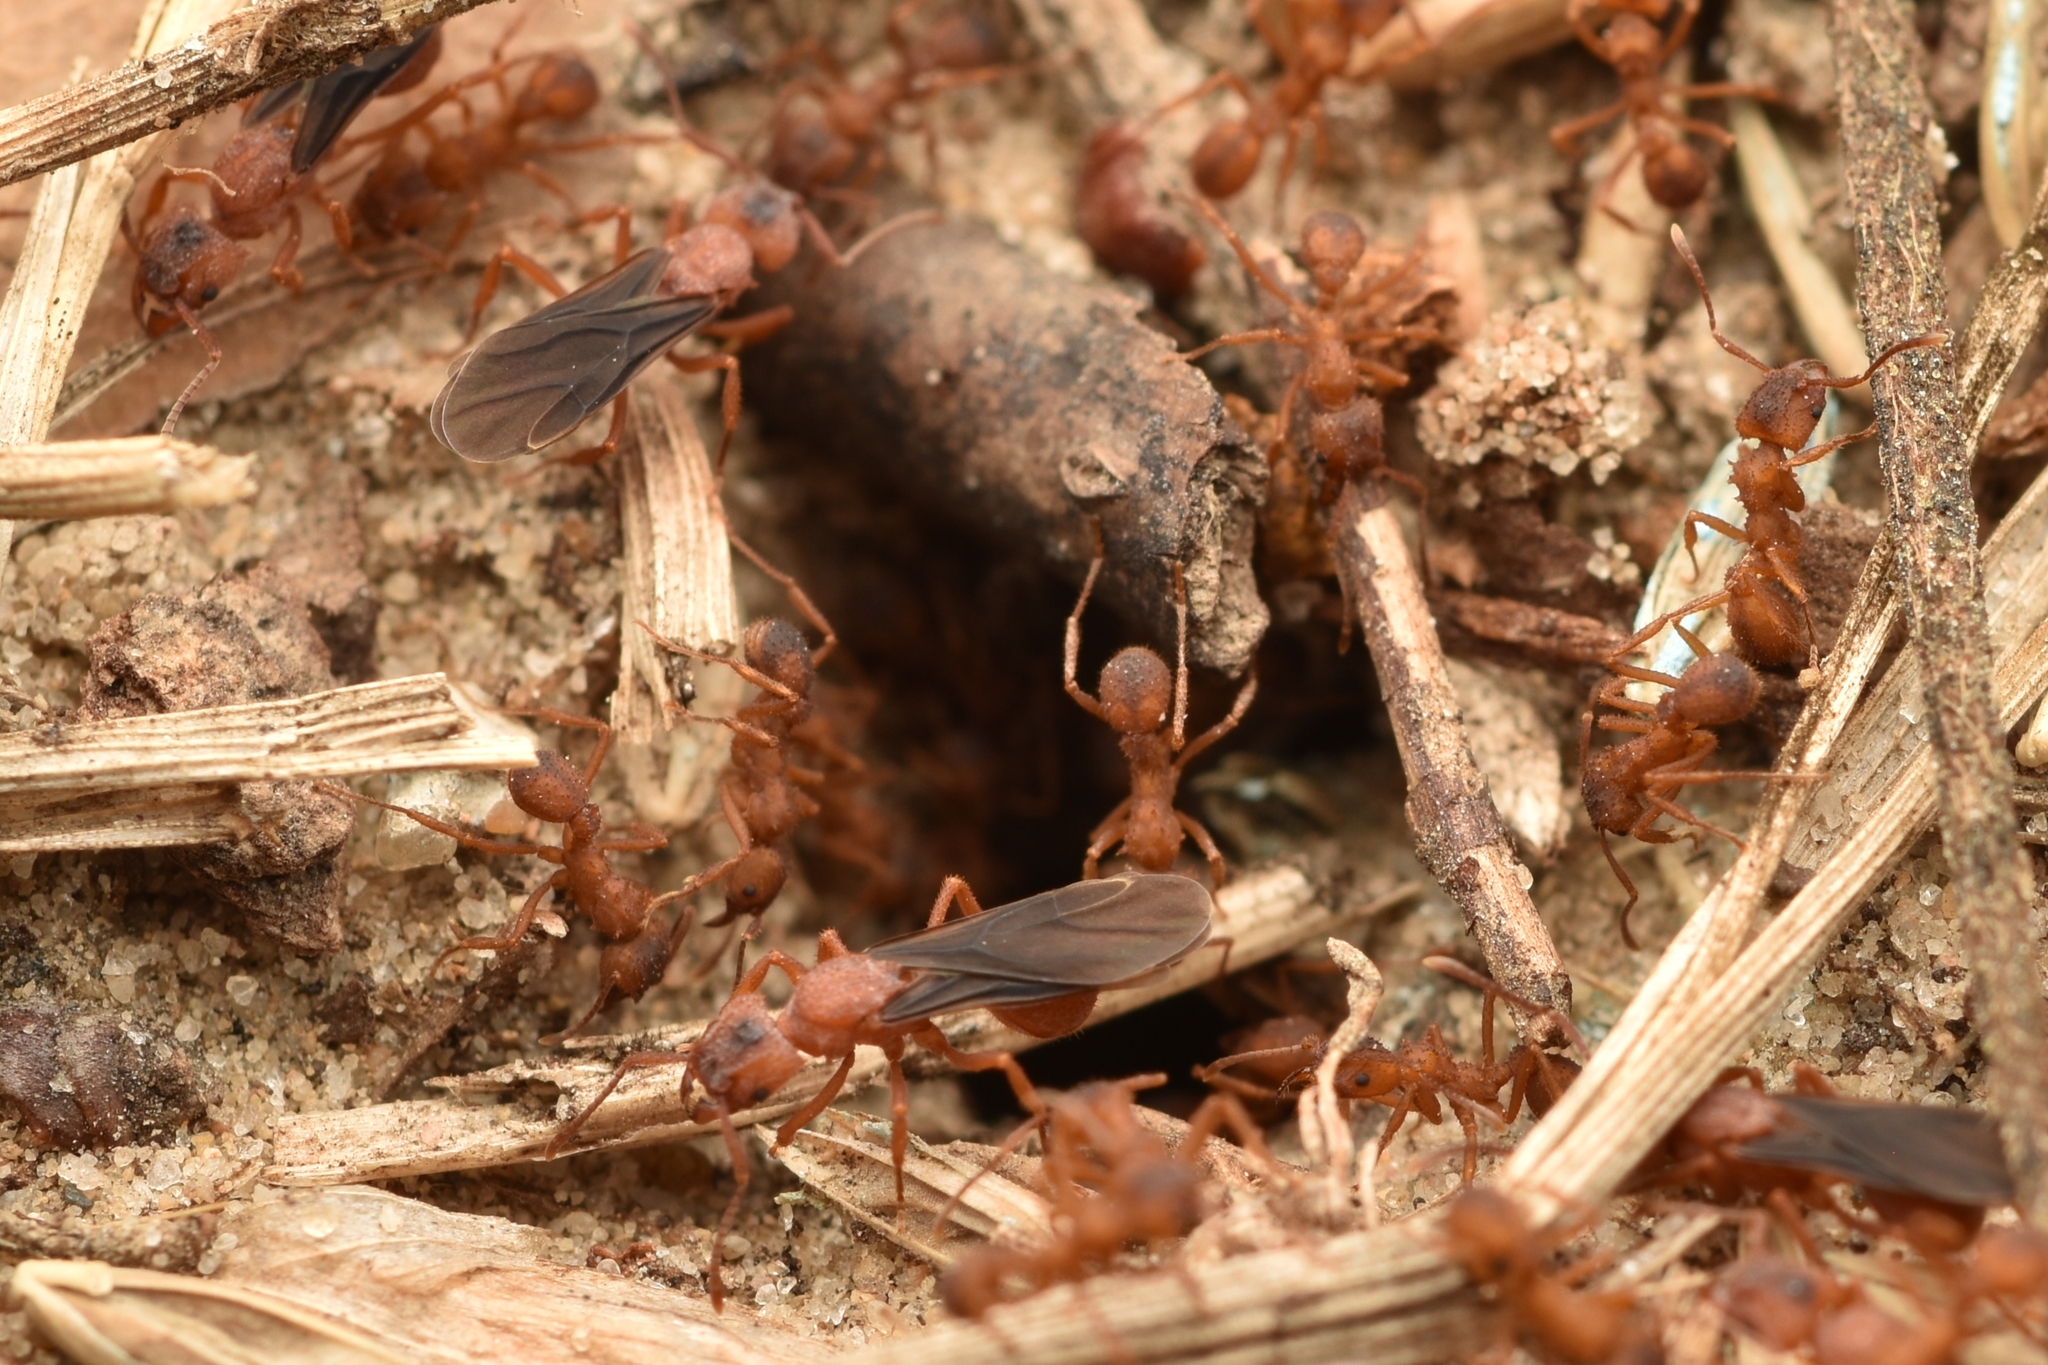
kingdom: Animalia
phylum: Arthropoda
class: Insecta
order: Hymenoptera
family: Formicidae
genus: Trachymyrmex
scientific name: Trachymyrmex septentrionalis
